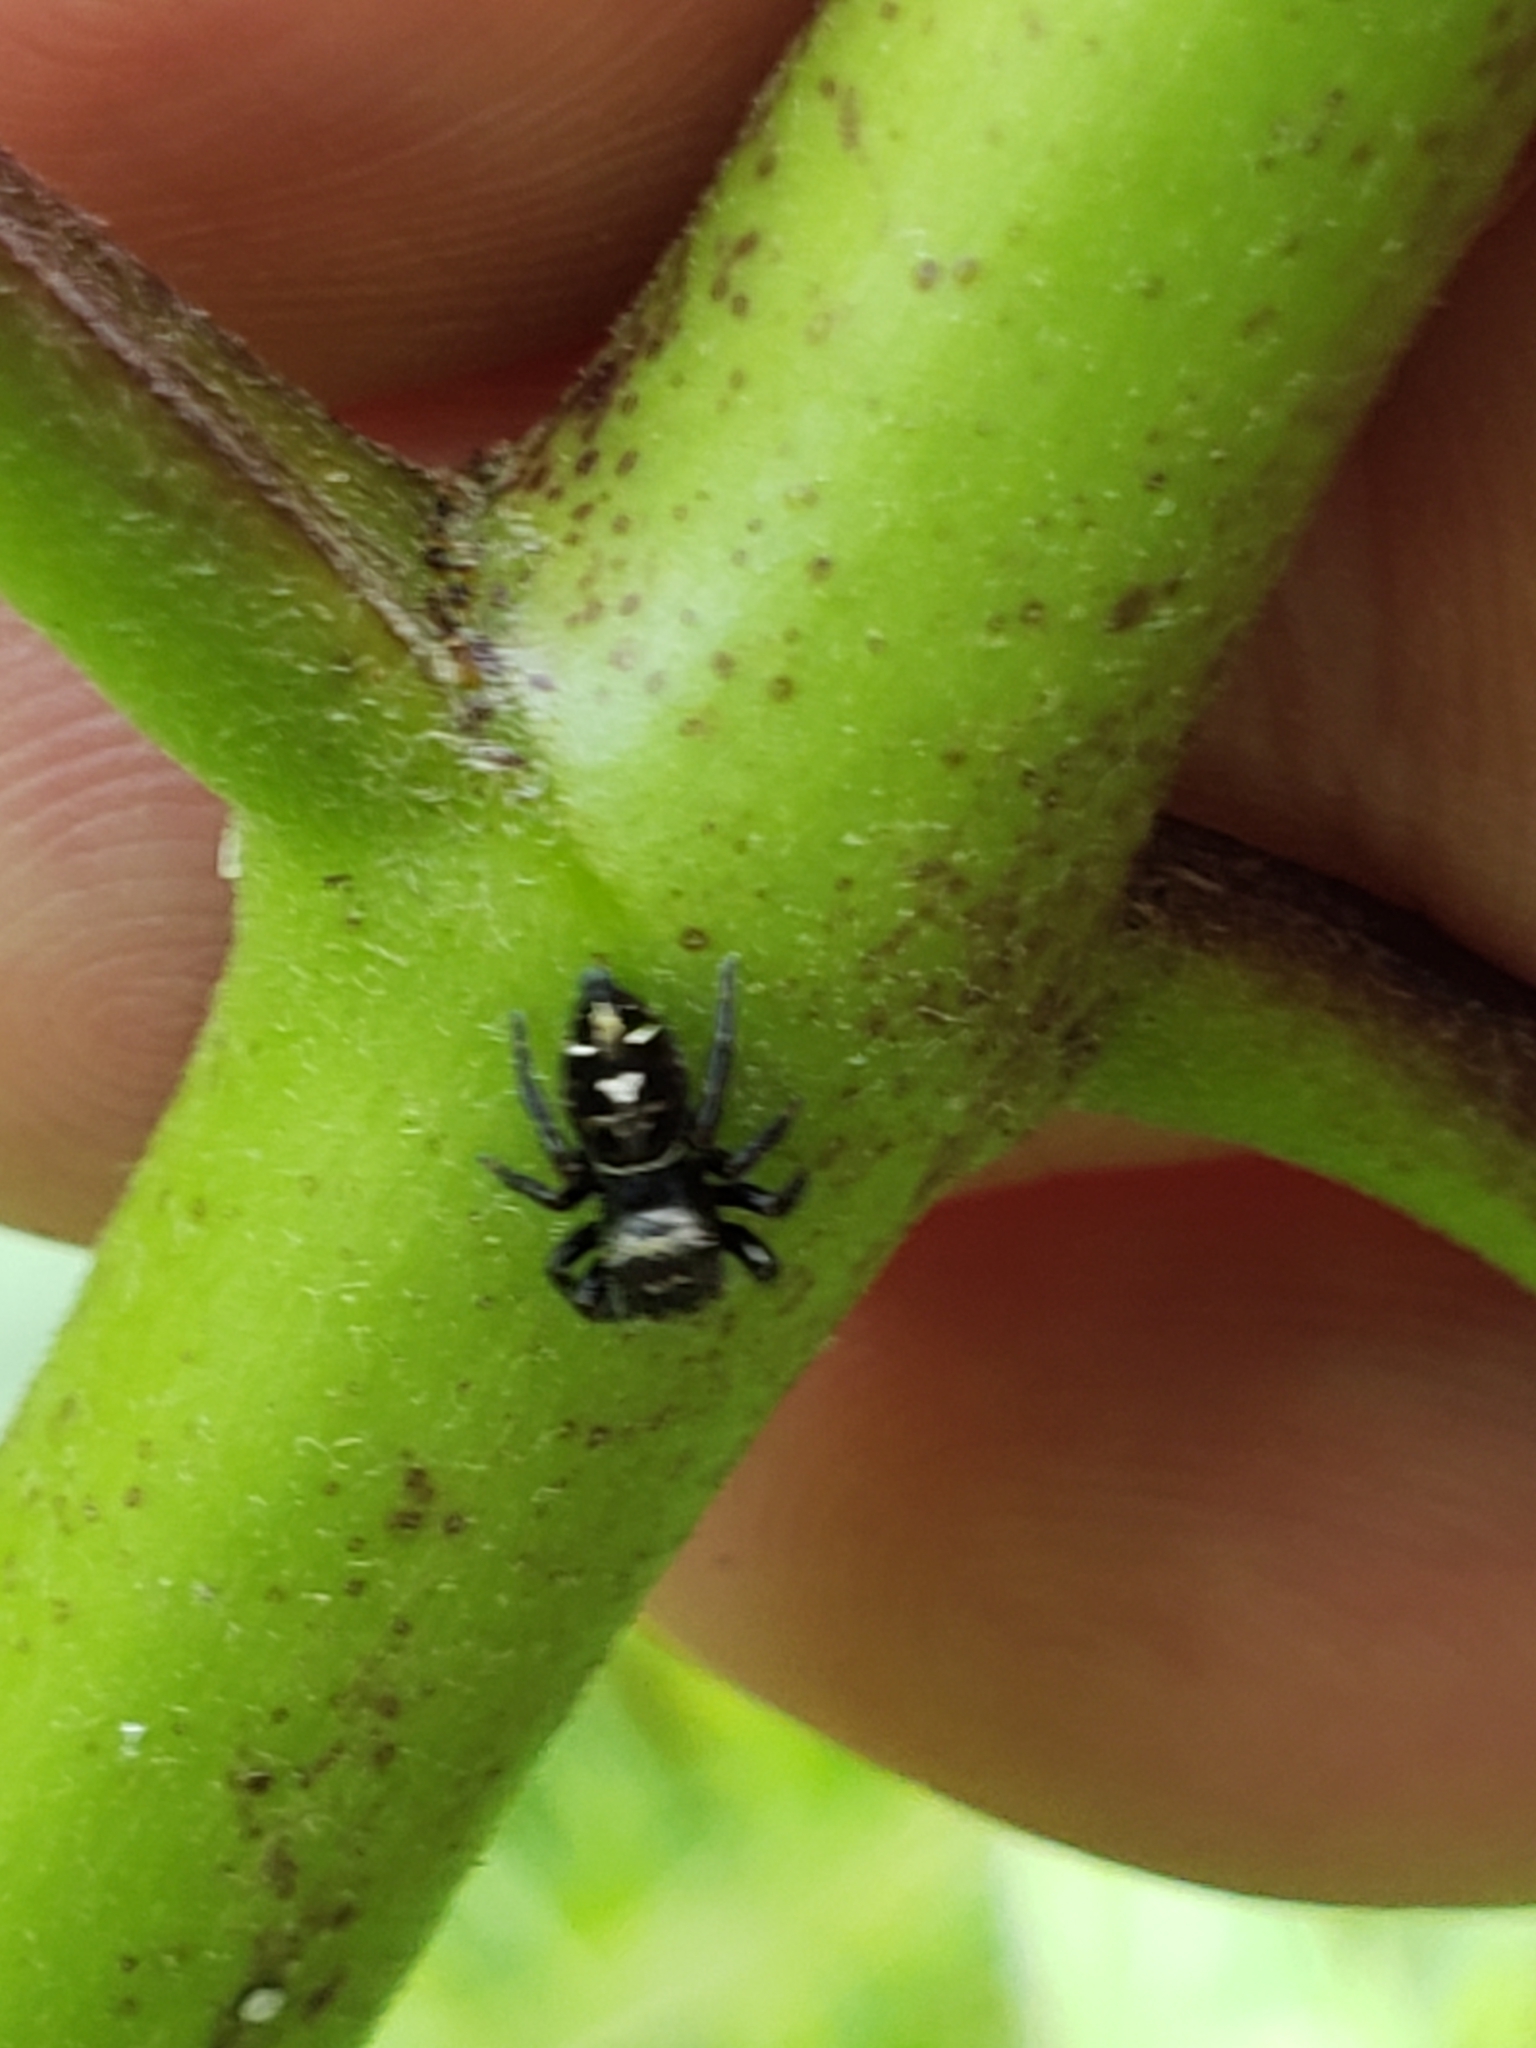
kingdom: Animalia
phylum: Arthropoda
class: Arachnida
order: Araneae
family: Salticidae
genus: Phidippus
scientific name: Phidippus audax
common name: Bold jumper
